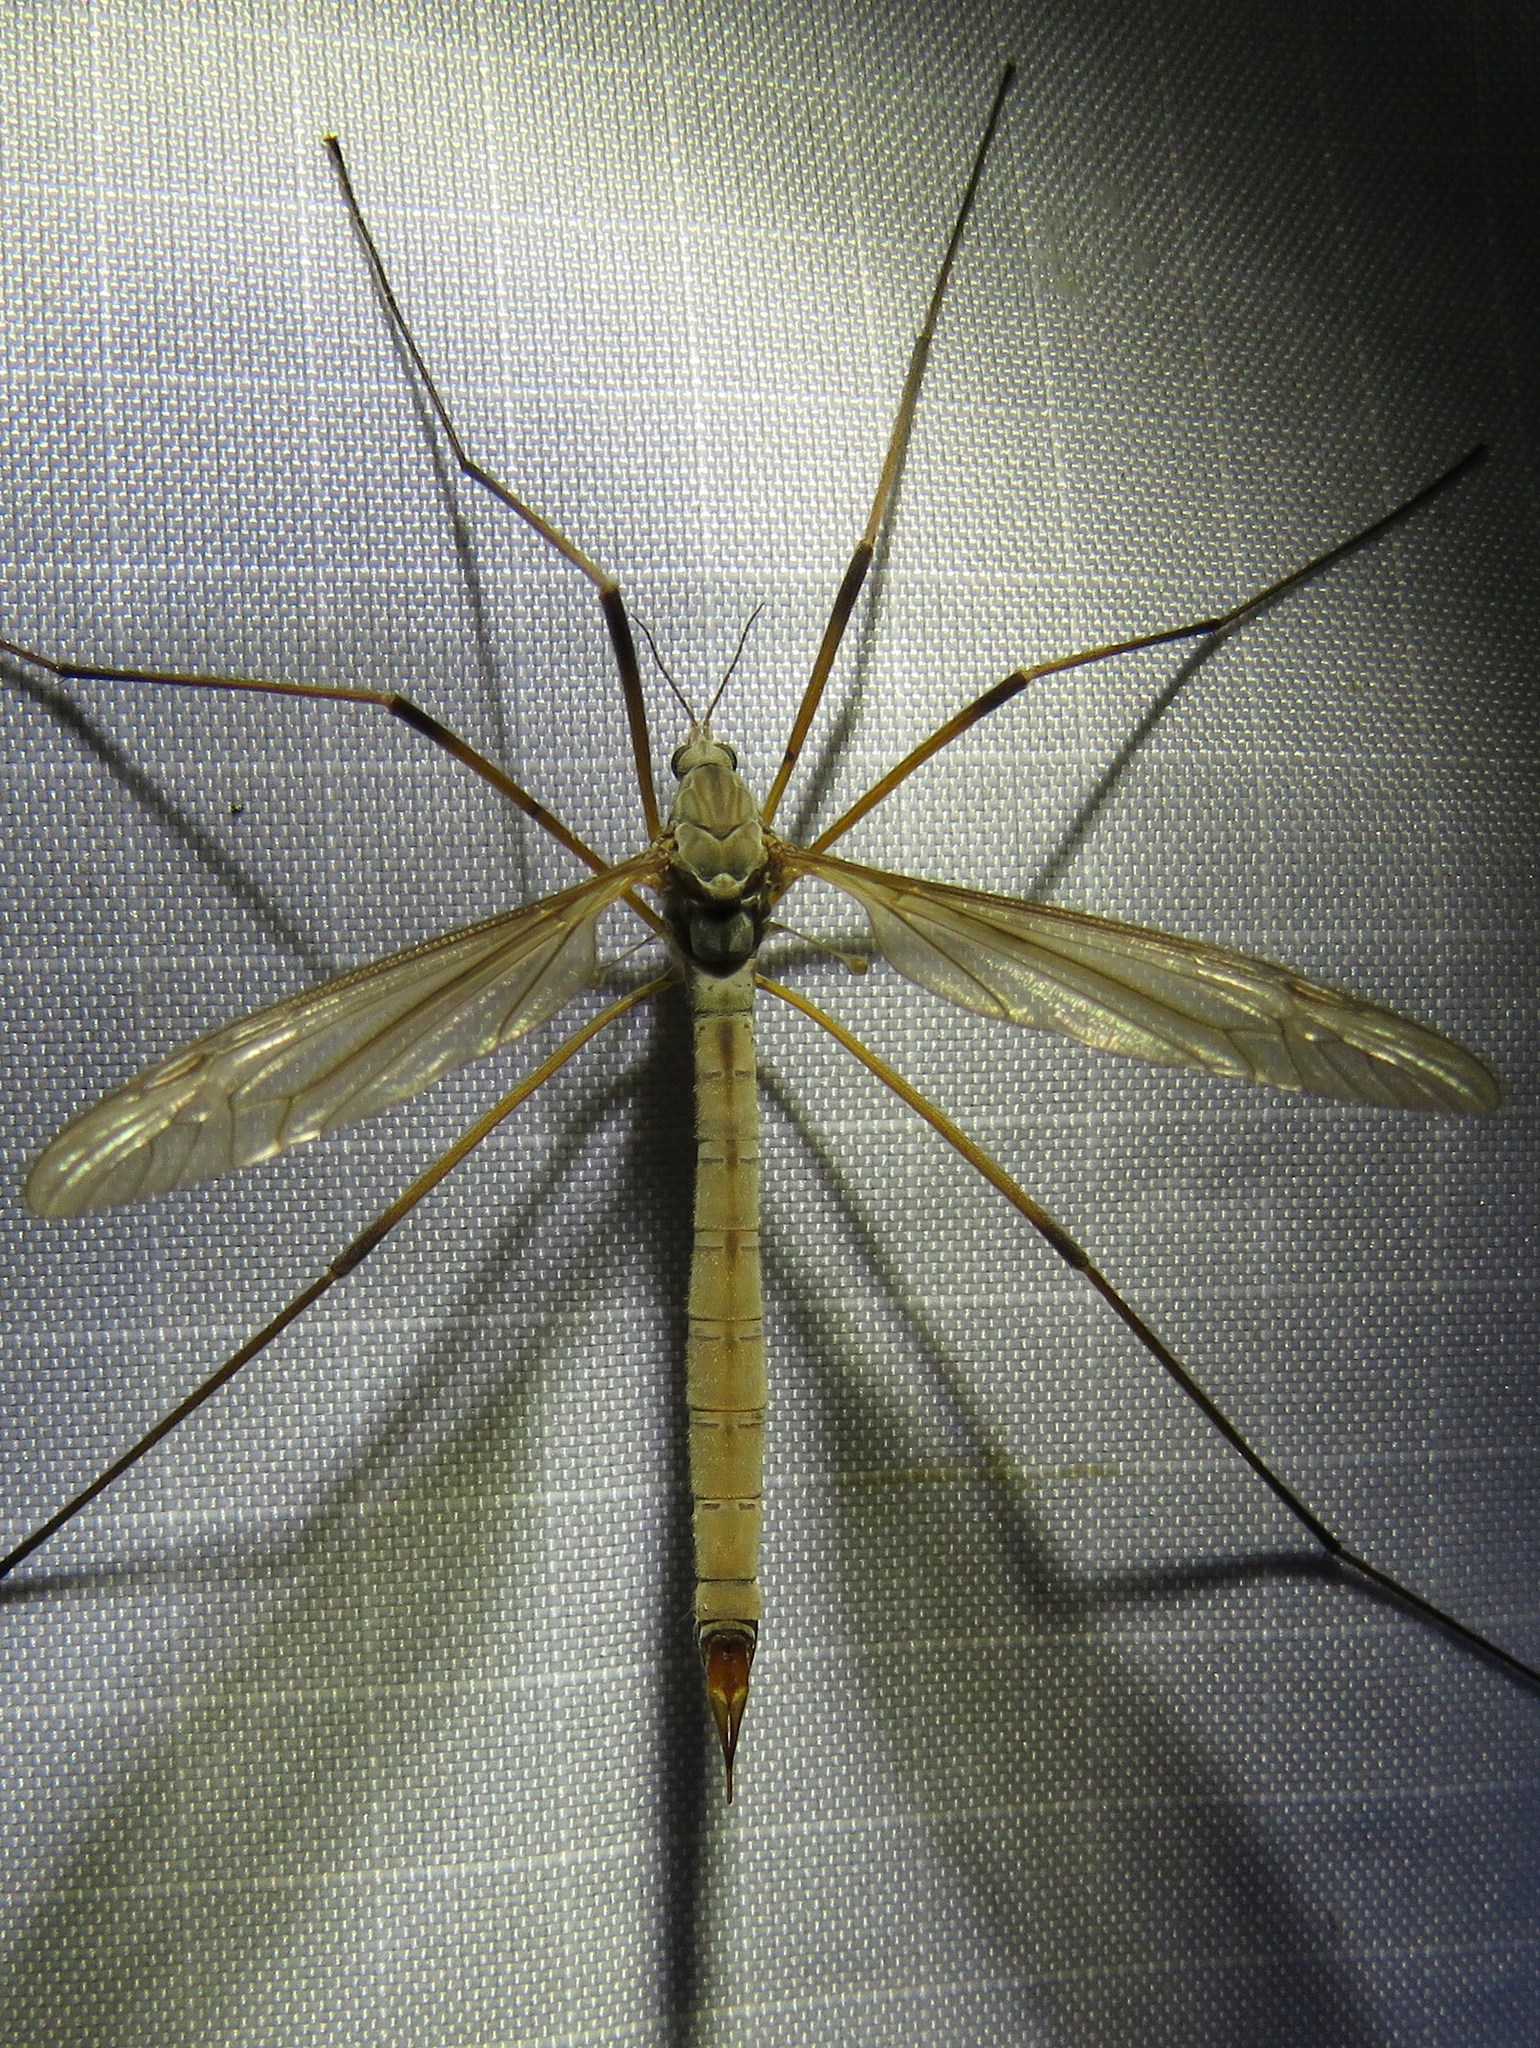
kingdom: Animalia
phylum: Arthropoda
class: Insecta
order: Diptera
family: Tipulidae
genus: Tipula
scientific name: Tipula paludosa
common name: European cranefly
